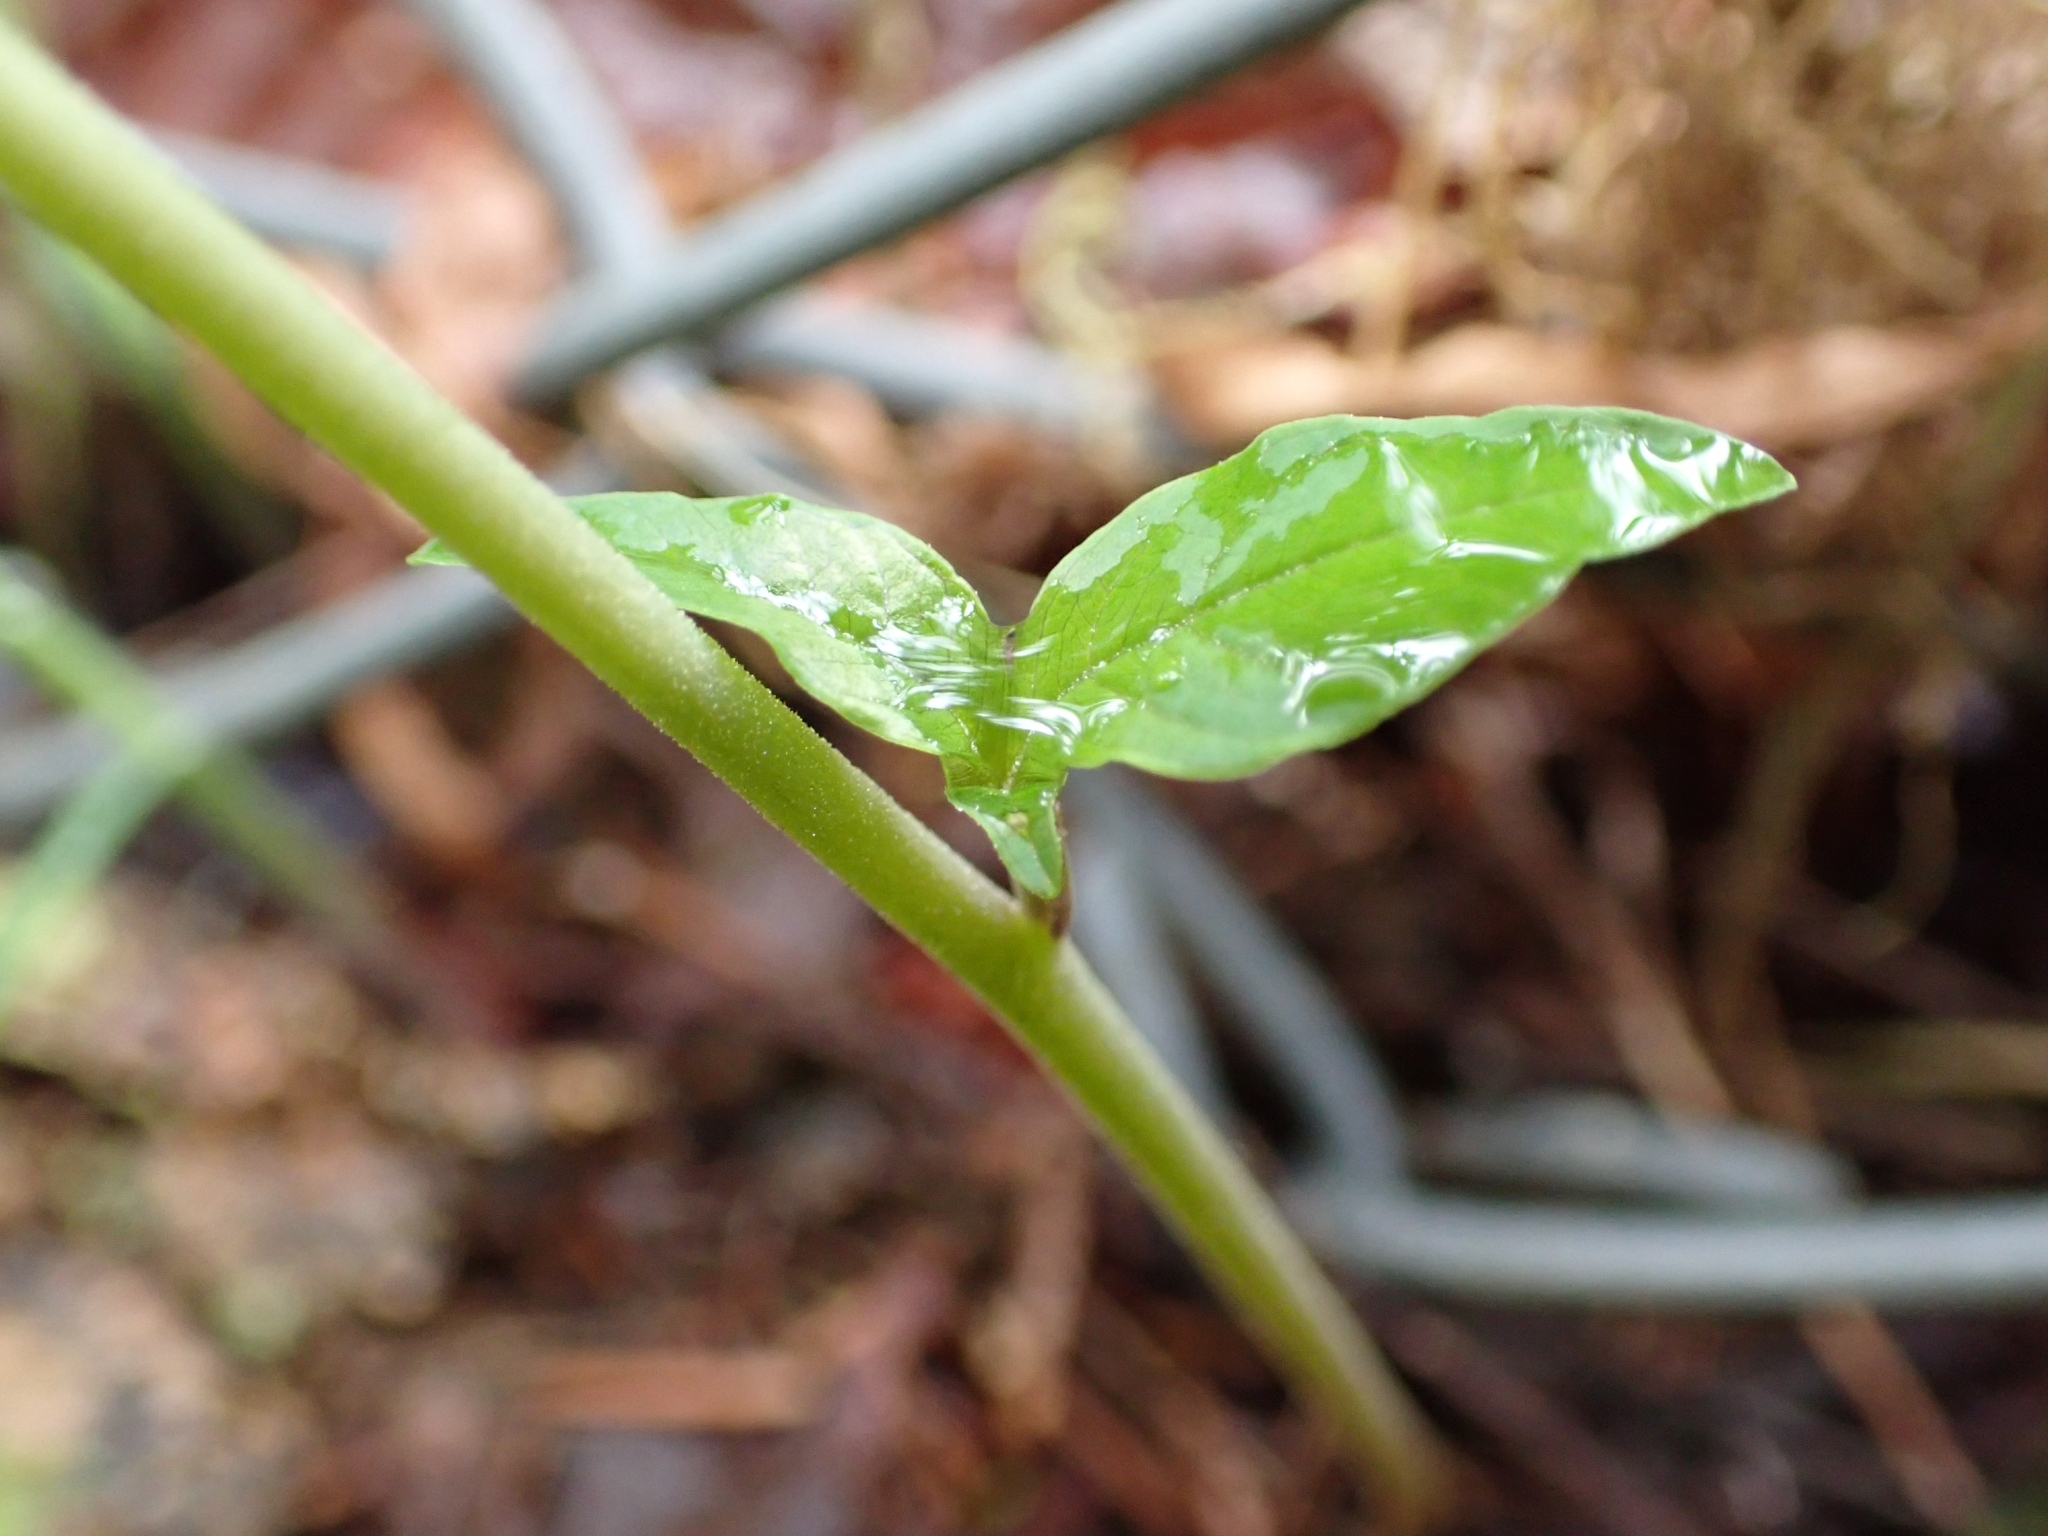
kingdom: Plantae
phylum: Tracheophyta
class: Magnoliopsida
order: Ericales
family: Primulaceae
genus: Lysimachia
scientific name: Lysimachia latifolia
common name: Pacific starflower
